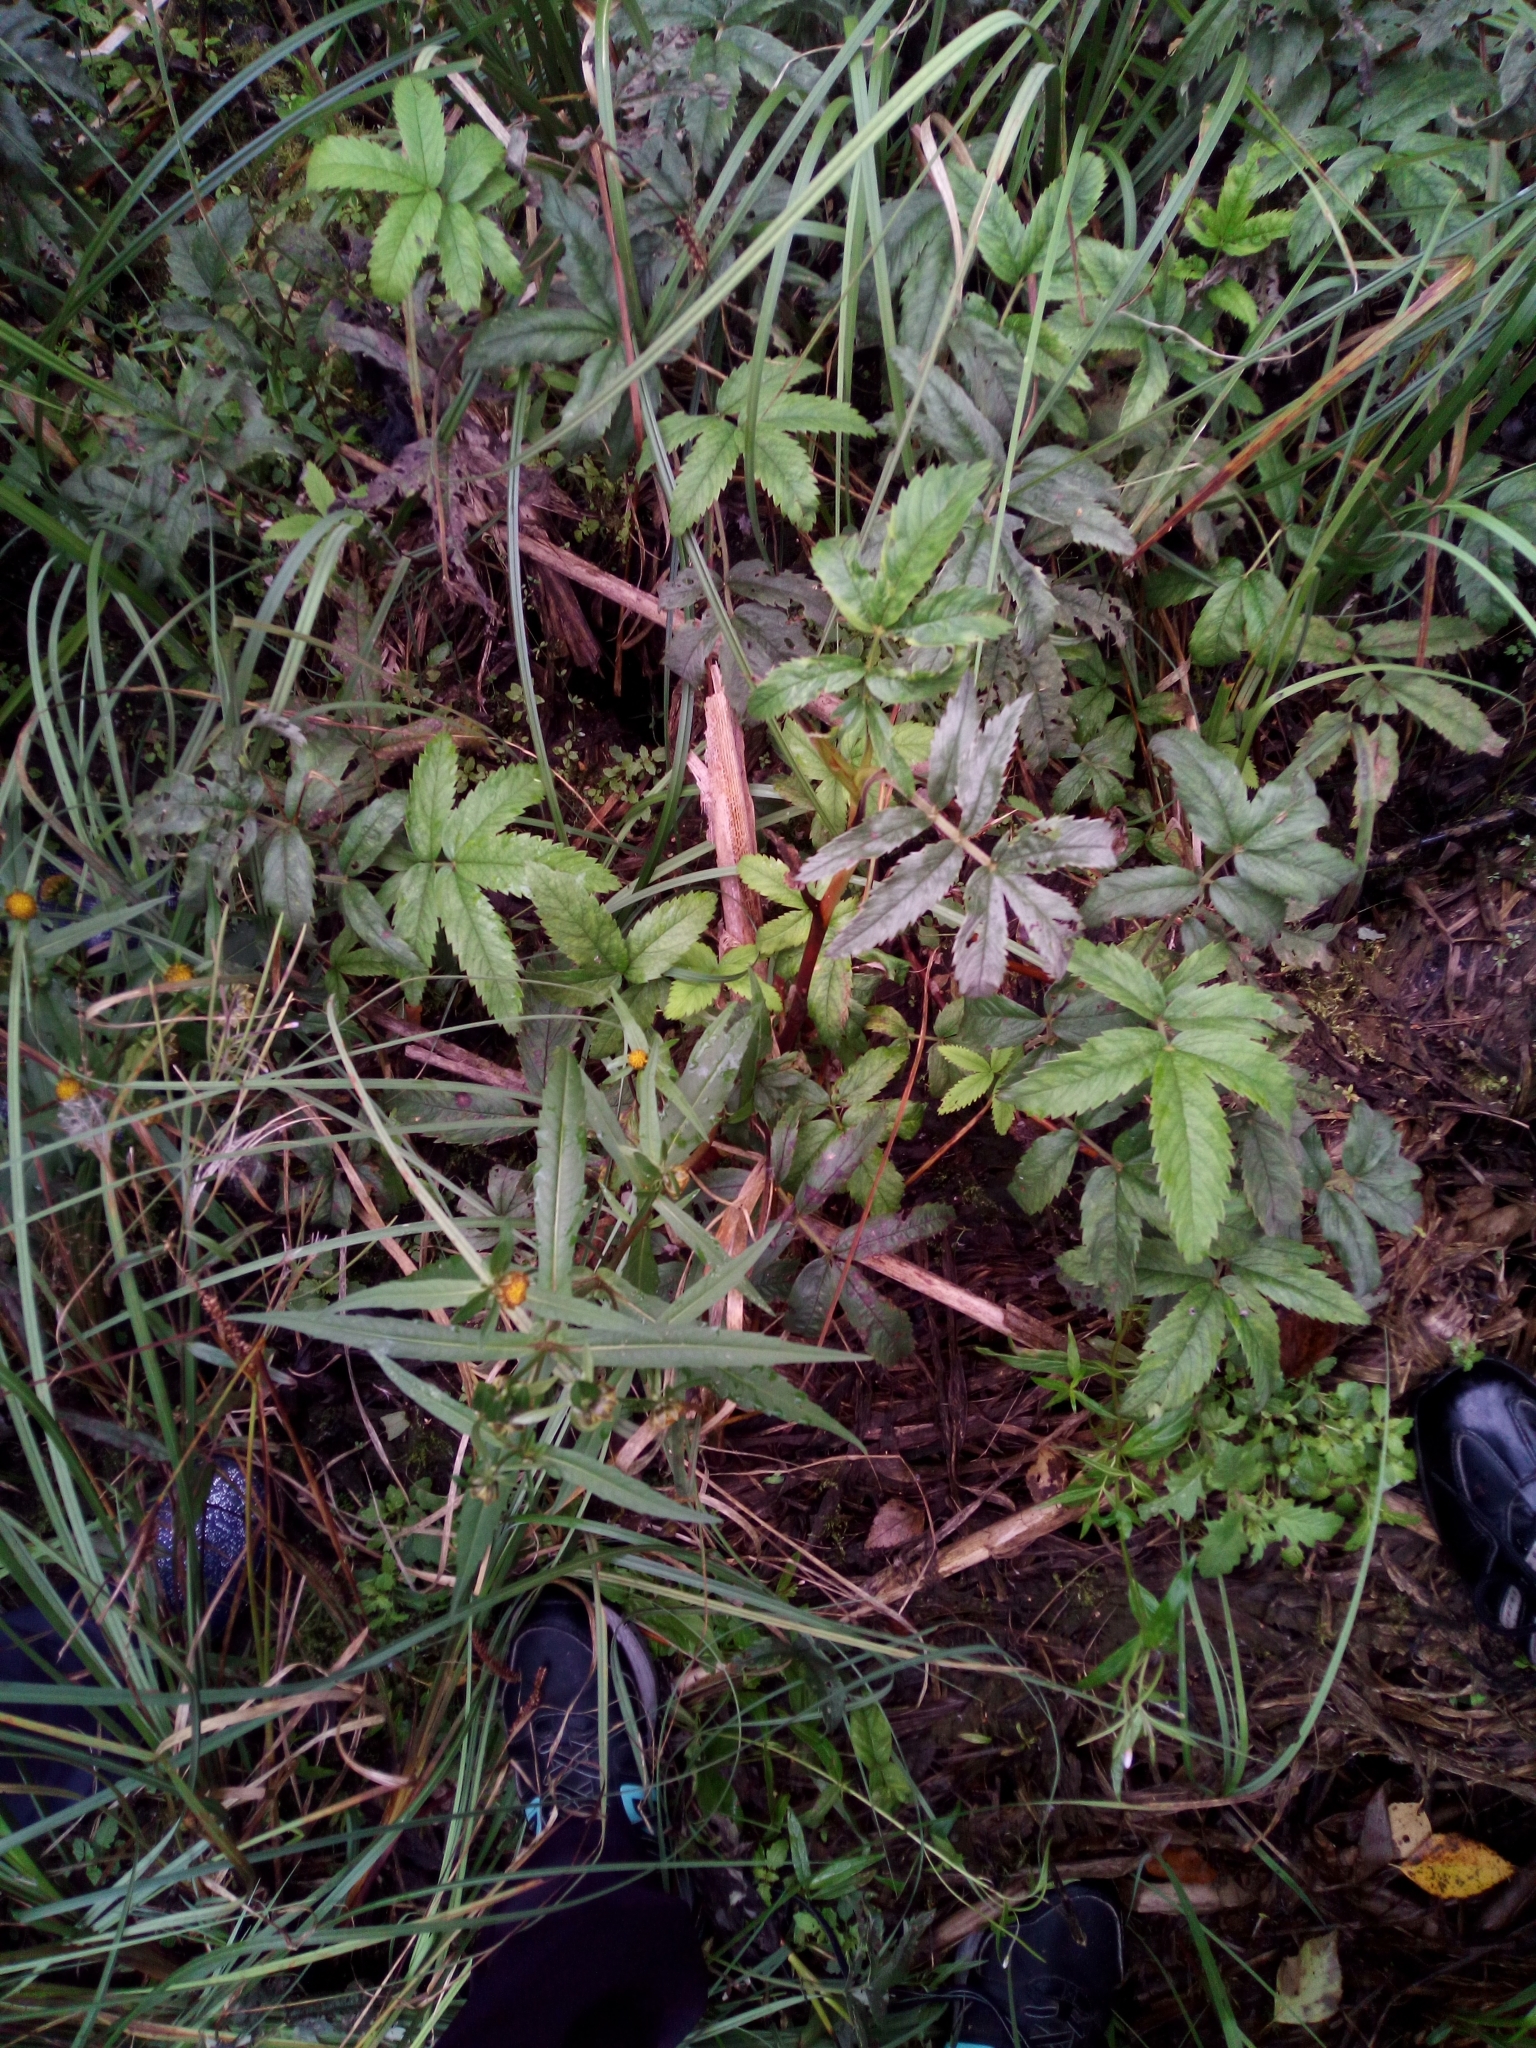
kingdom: Plantae
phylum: Tracheophyta
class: Magnoliopsida
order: Asterales
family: Asteraceae
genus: Bidens
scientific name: Bidens cernua
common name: Nodding bur-marigold
